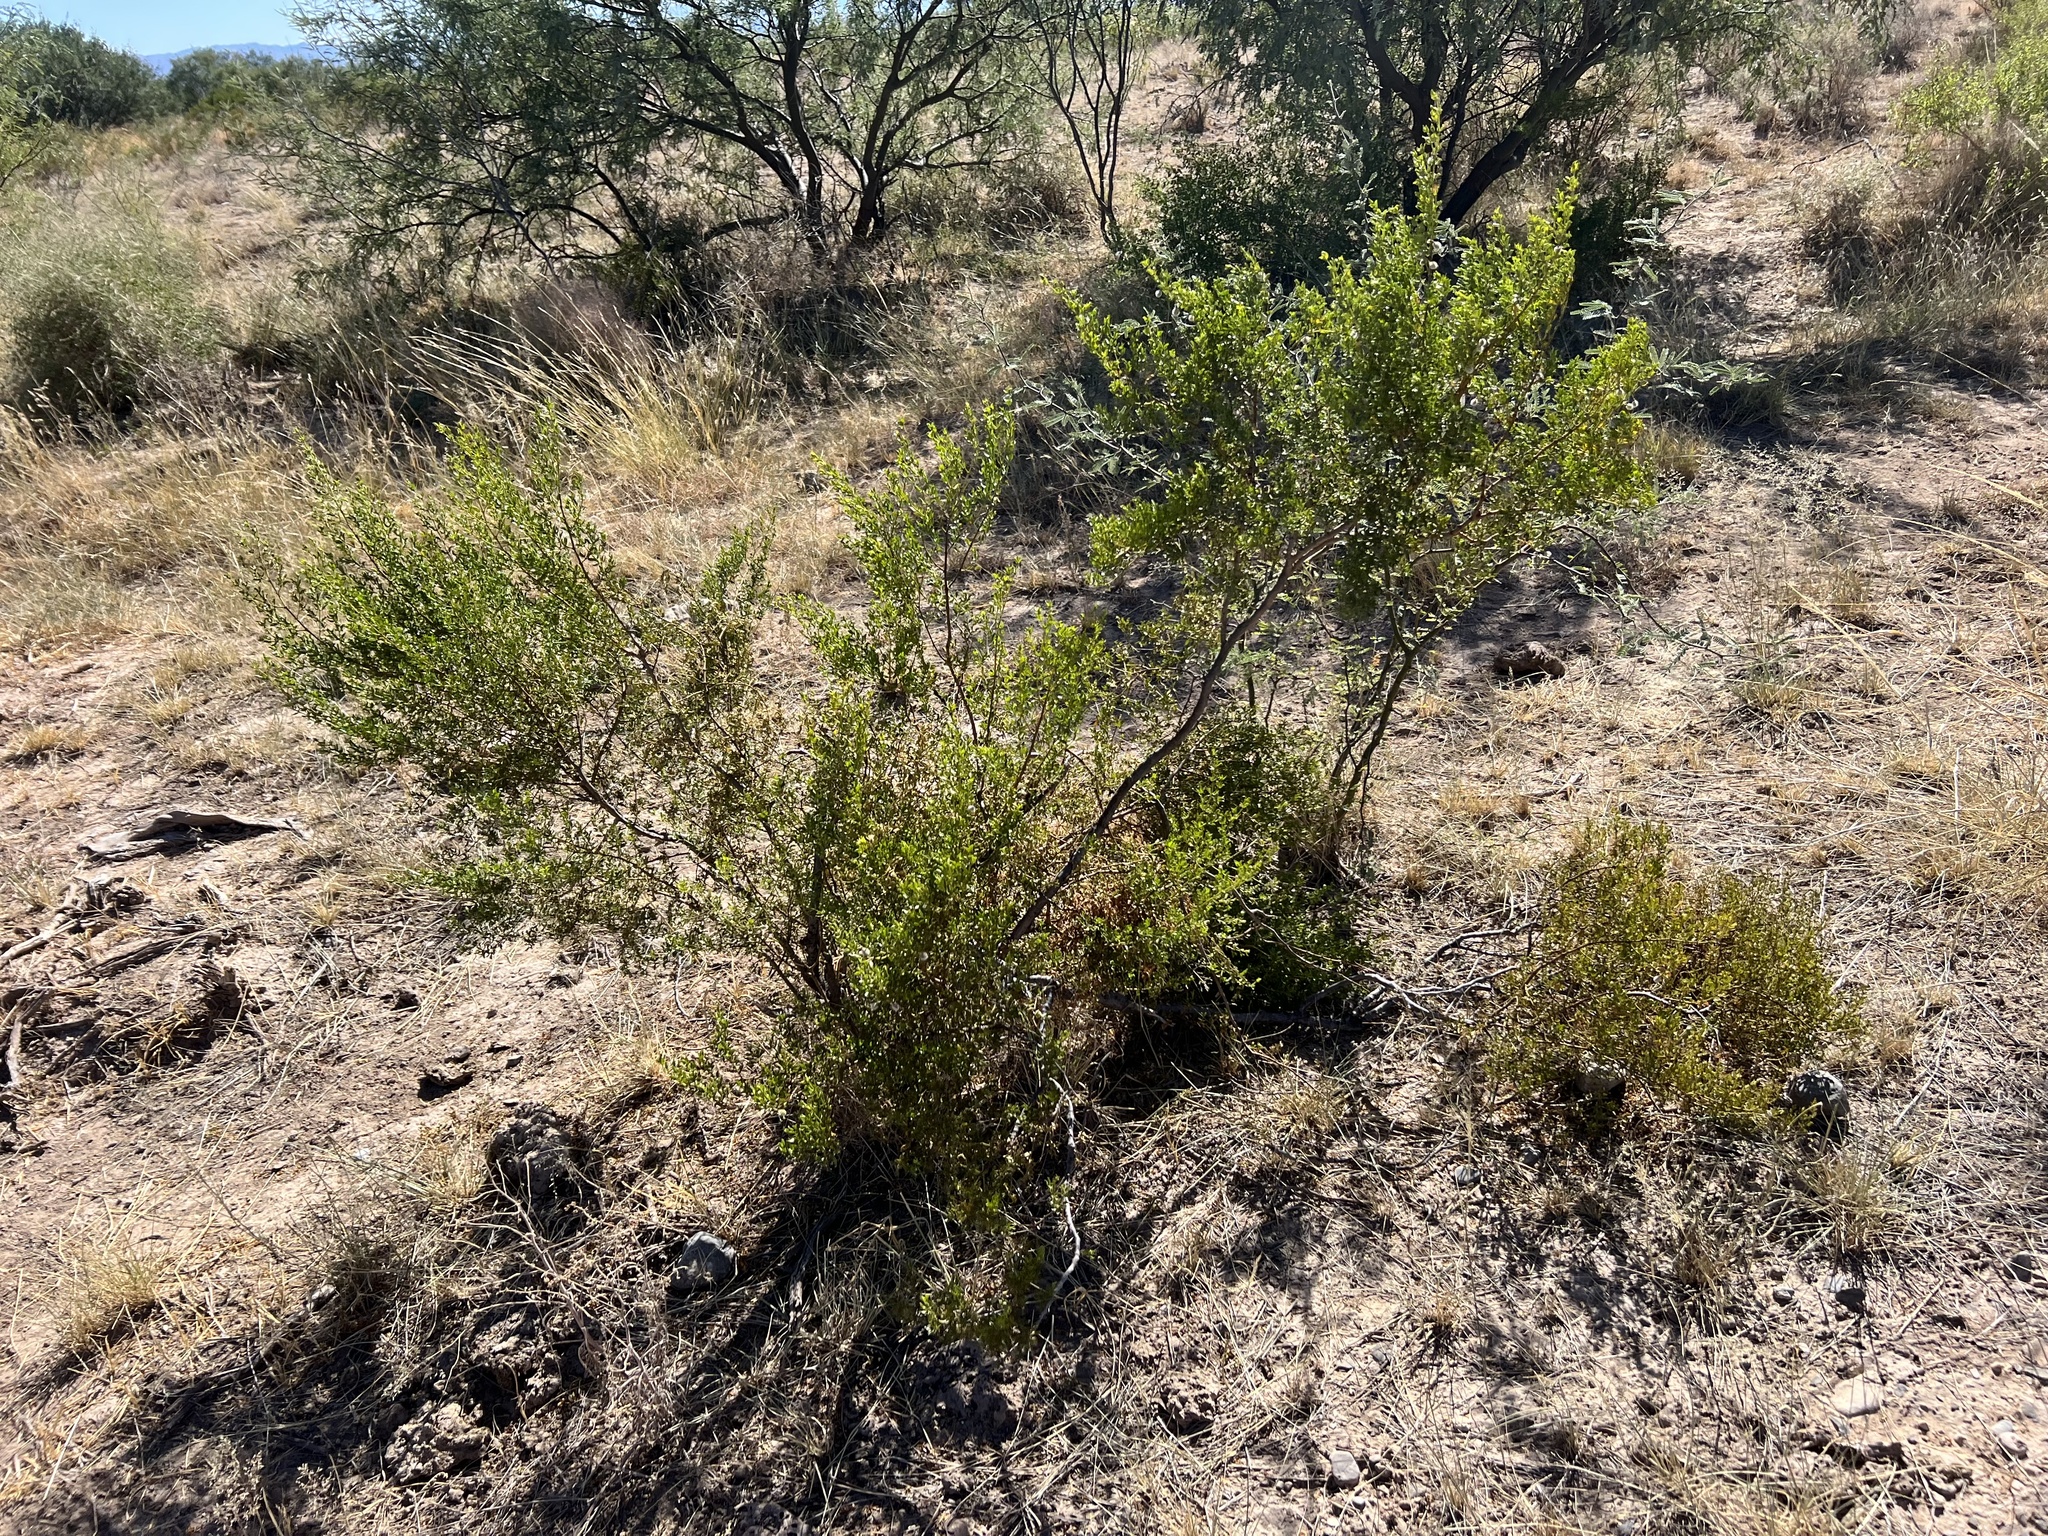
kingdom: Plantae
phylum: Tracheophyta
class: Magnoliopsida
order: Zygophyllales
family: Zygophyllaceae
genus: Larrea
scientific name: Larrea tridentata
